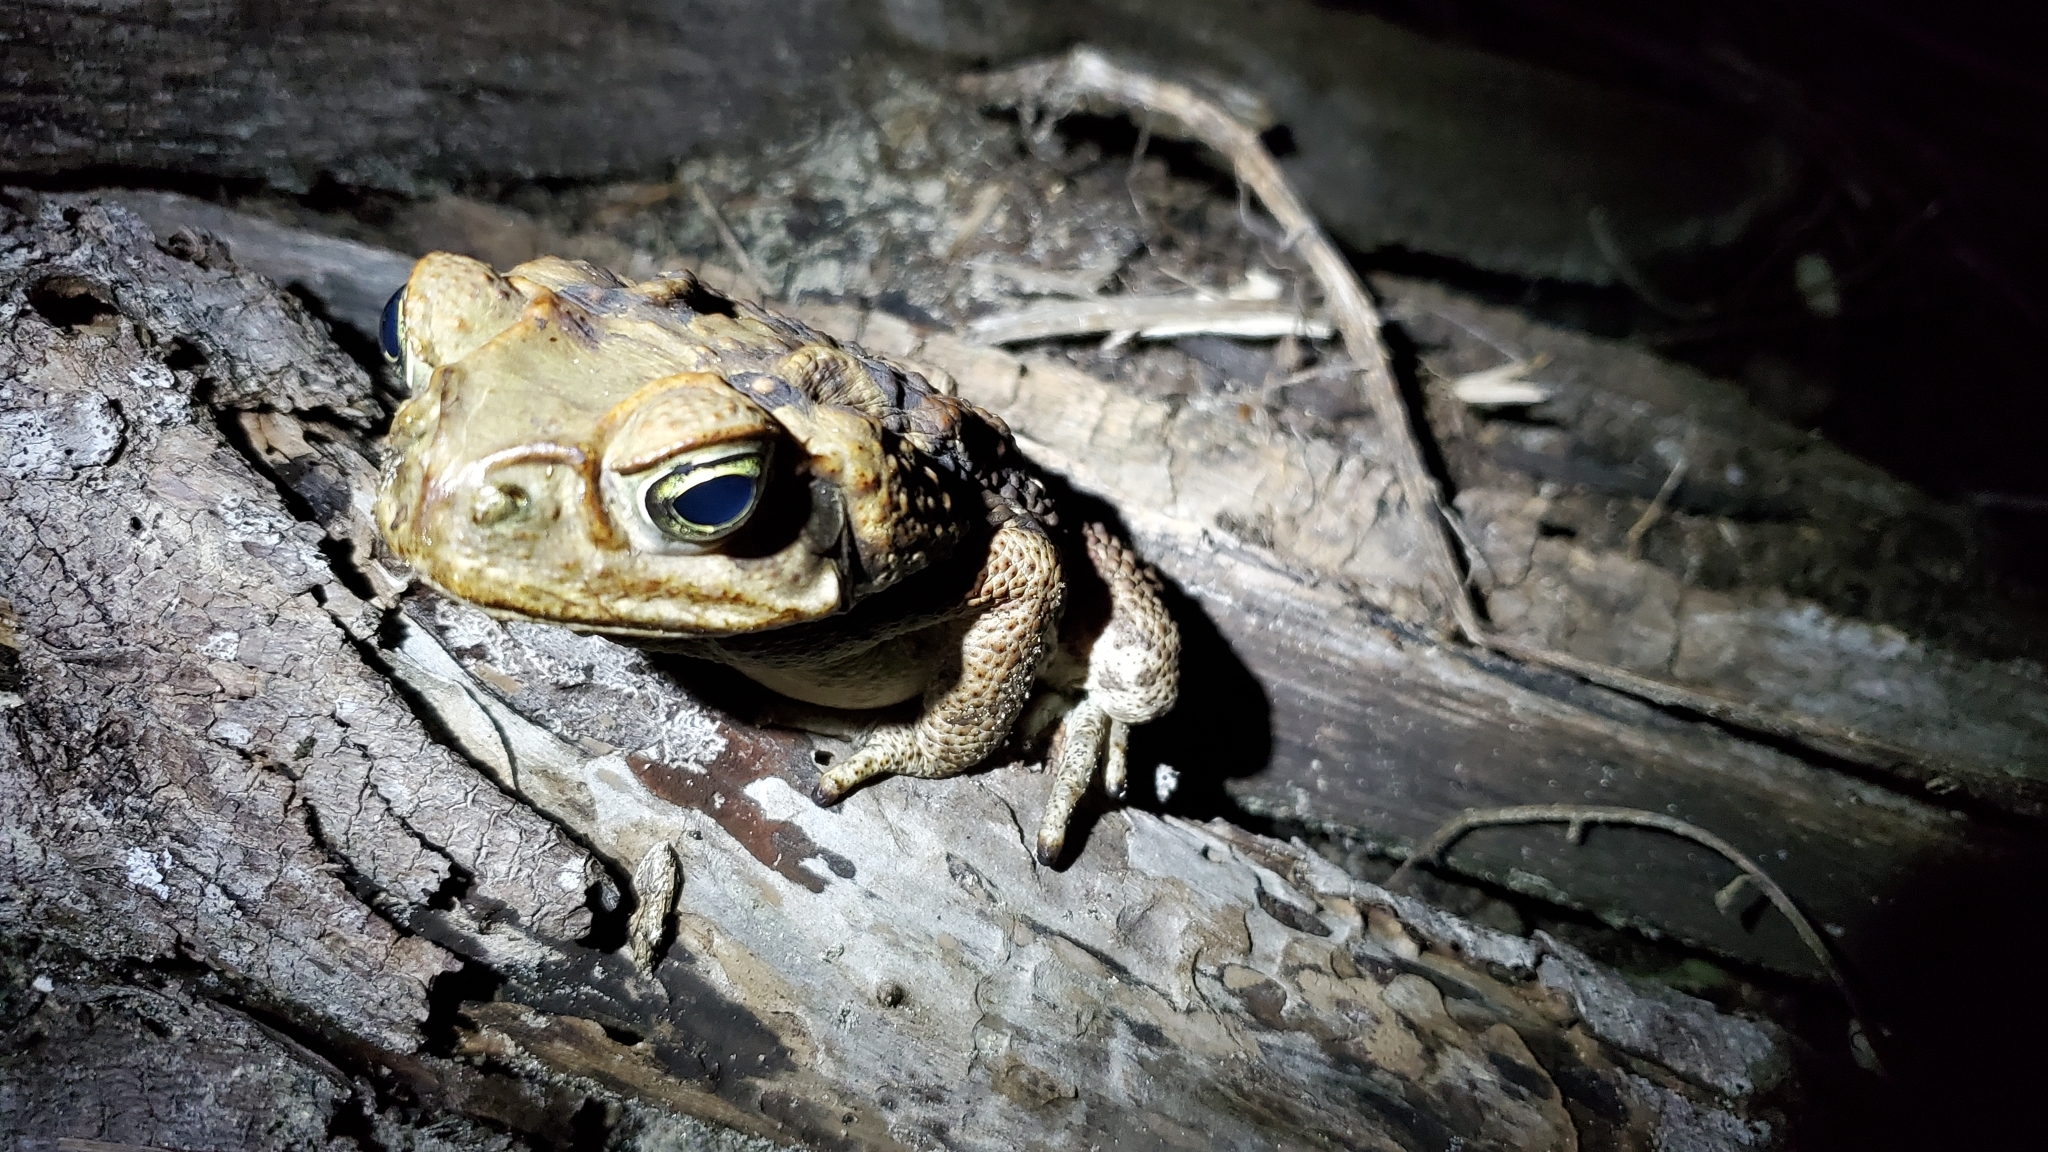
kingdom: Animalia
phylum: Chordata
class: Amphibia
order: Anura
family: Bufonidae
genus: Rhinella
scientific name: Rhinella marina
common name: Cane toad
